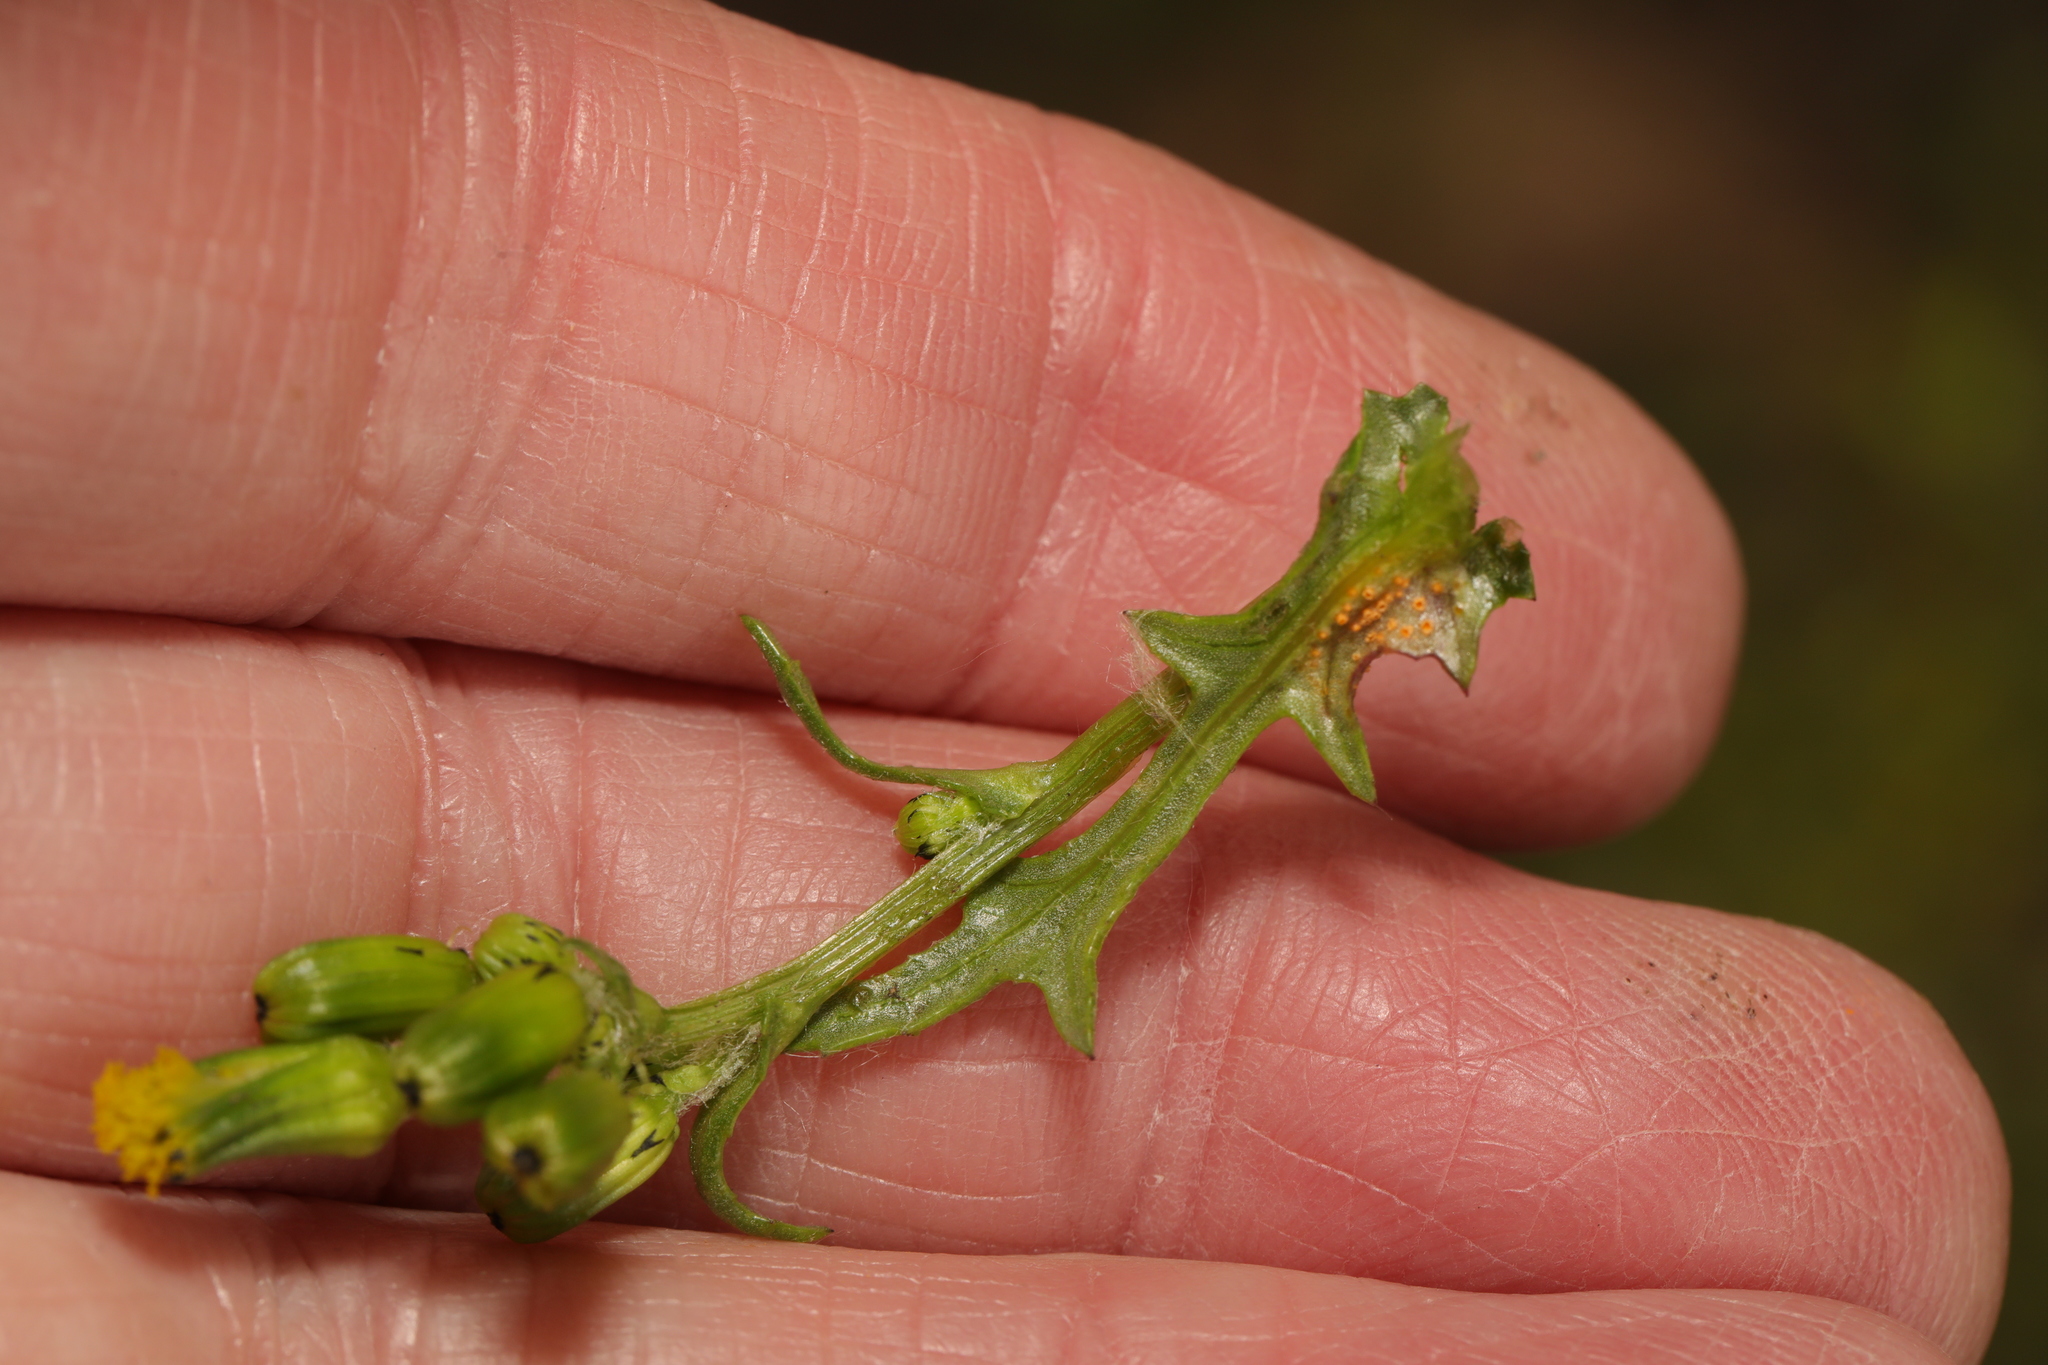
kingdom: Fungi
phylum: Basidiomycota
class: Pucciniomycetes
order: Pucciniales
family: Pucciniaceae
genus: Puccinia
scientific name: Puccinia lagenophorae
